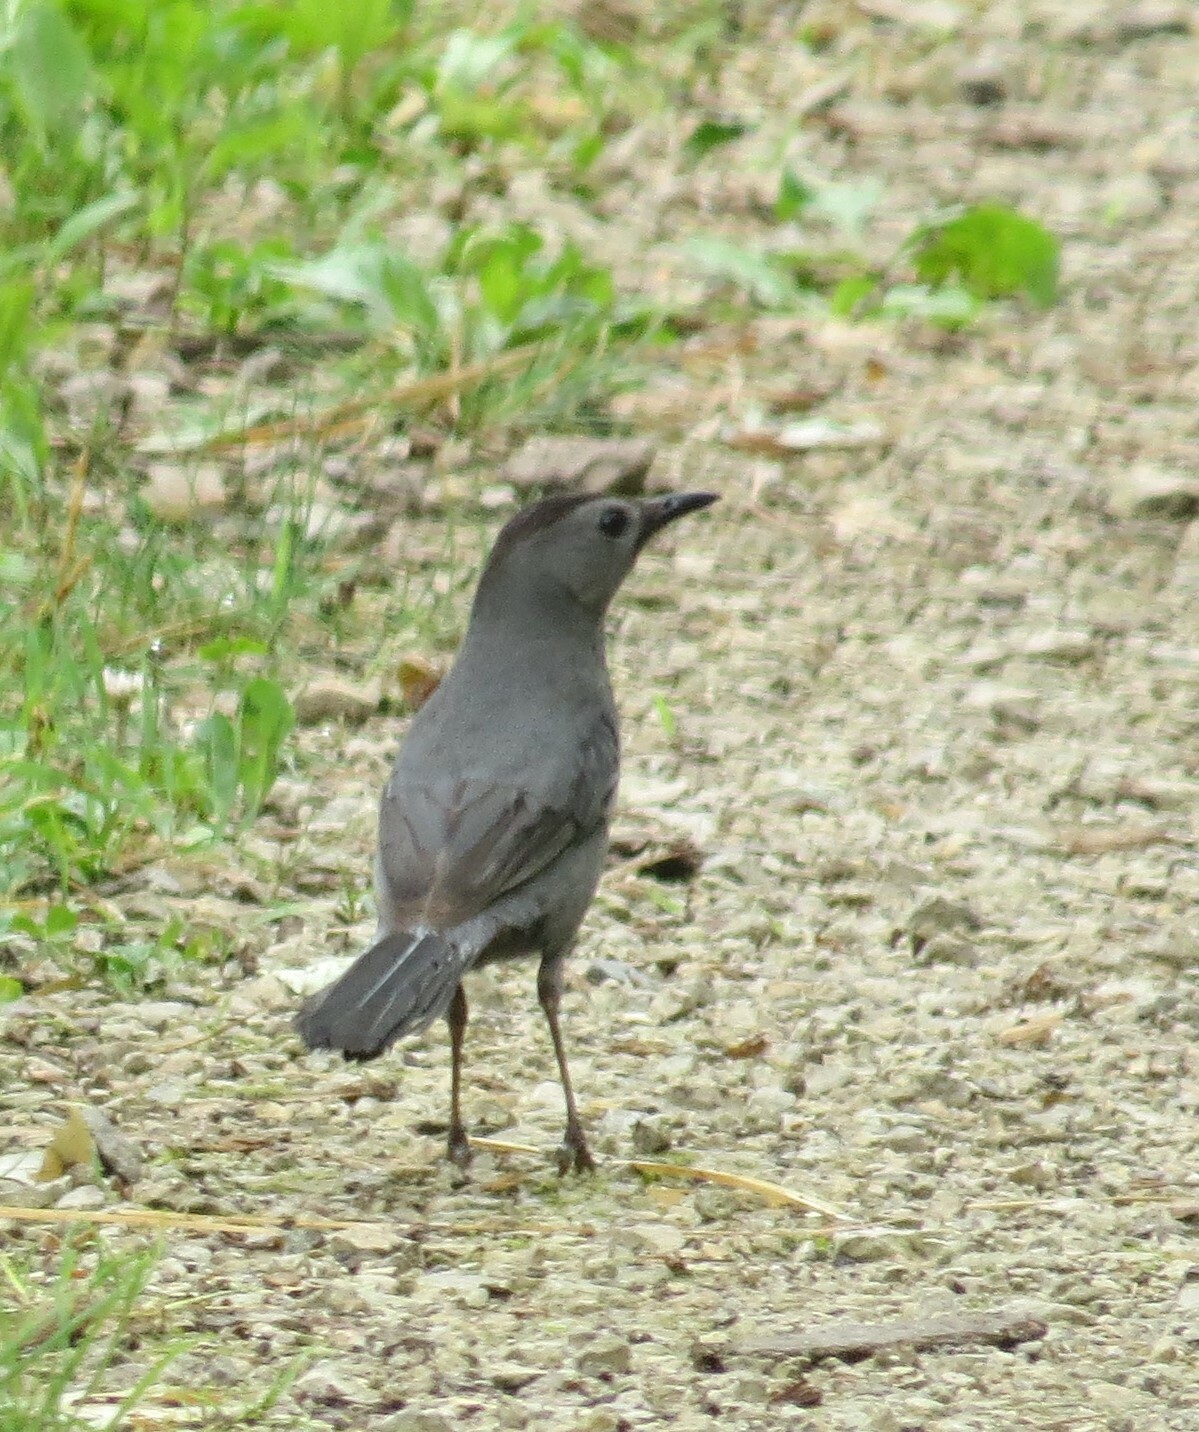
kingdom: Animalia
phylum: Chordata
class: Aves
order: Passeriformes
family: Mimidae
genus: Dumetella
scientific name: Dumetella carolinensis
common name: Gray catbird
